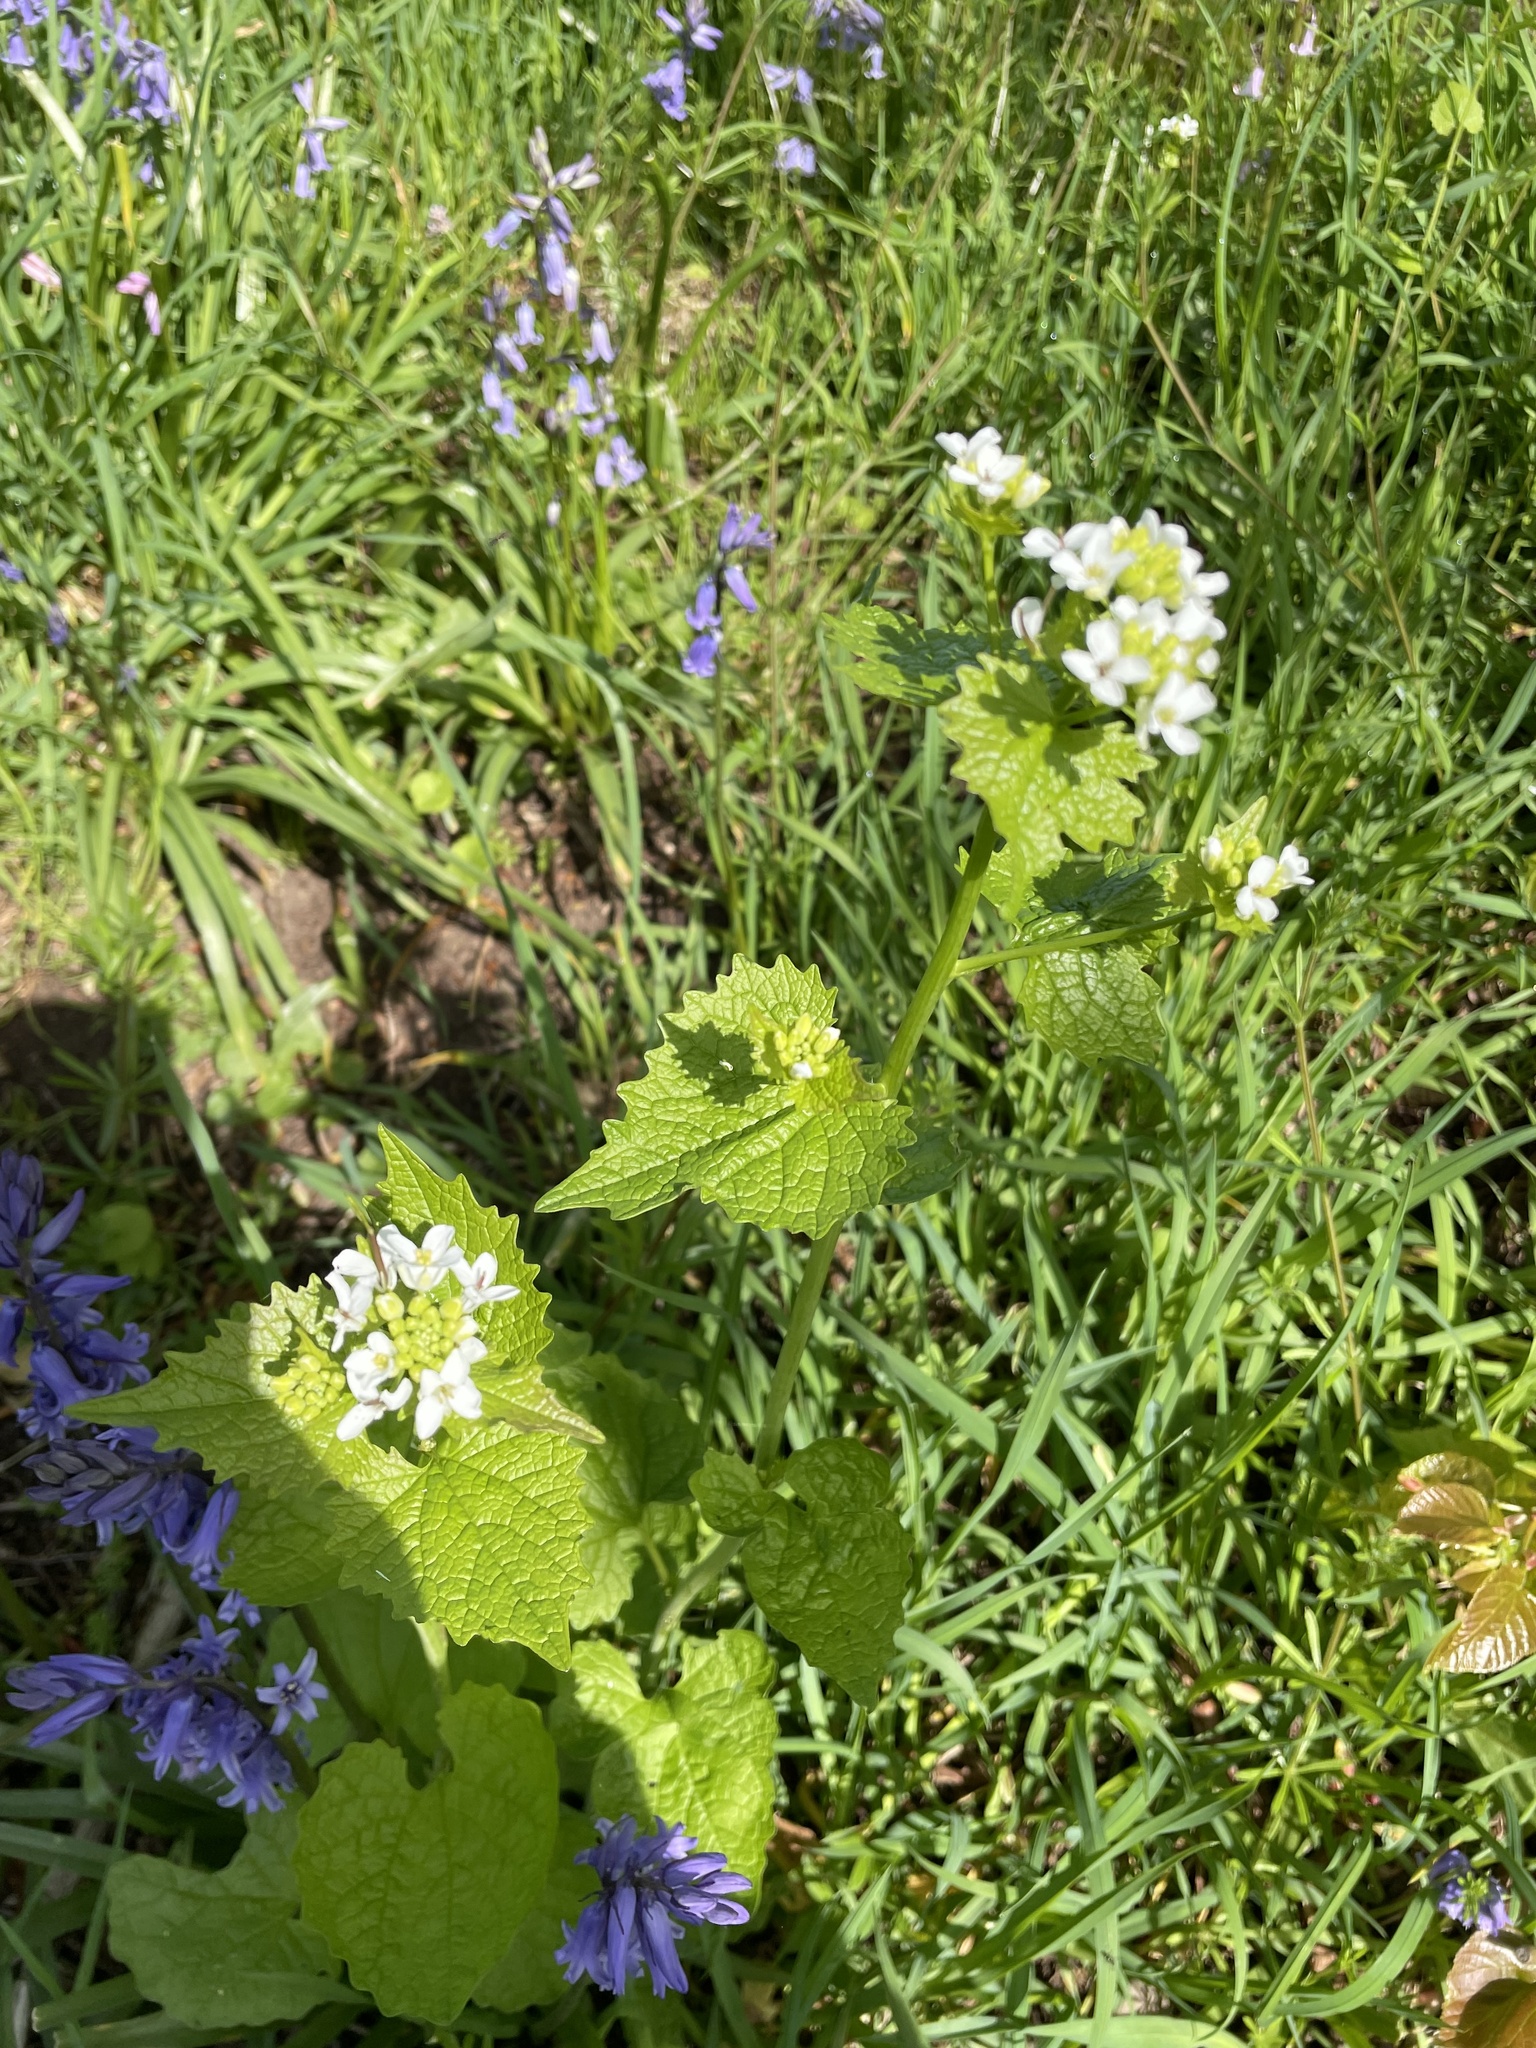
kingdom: Plantae
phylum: Tracheophyta
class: Magnoliopsida
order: Brassicales
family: Brassicaceae
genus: Alliaria
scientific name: Alliaria petiolata
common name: Garlic mustard
